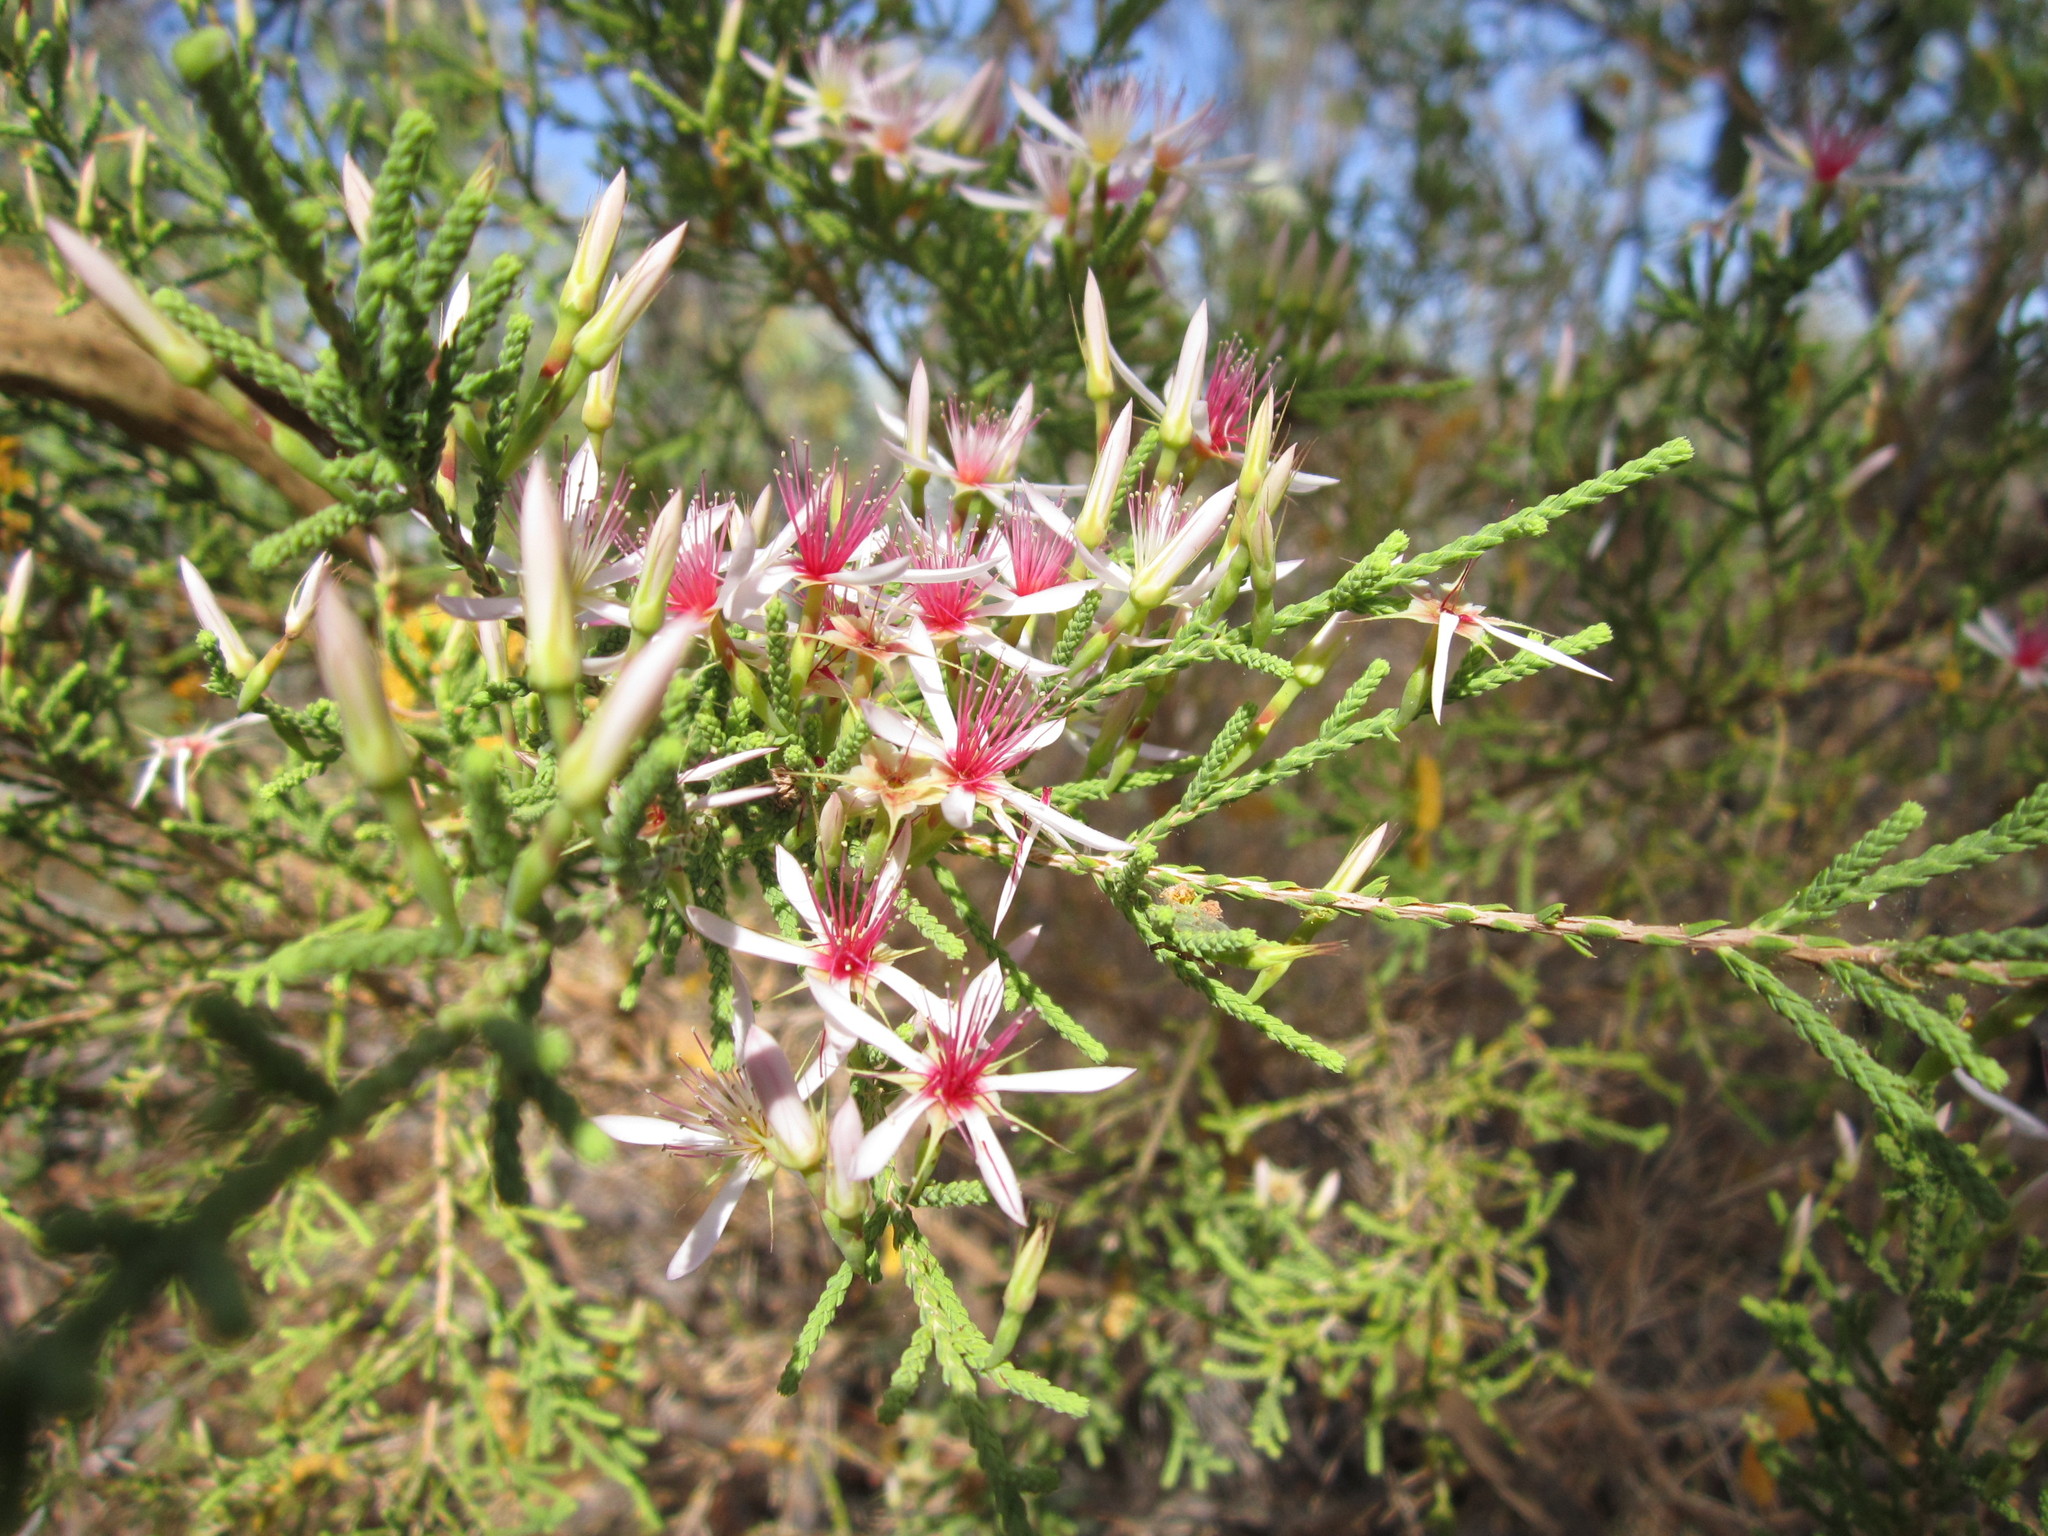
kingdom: Plantae
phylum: Tracheophyta
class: Magnoliopsida
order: Myrtales
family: Myrtaceae
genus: Calytrix
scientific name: Calytrix exstipulata
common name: Kimberley heather
